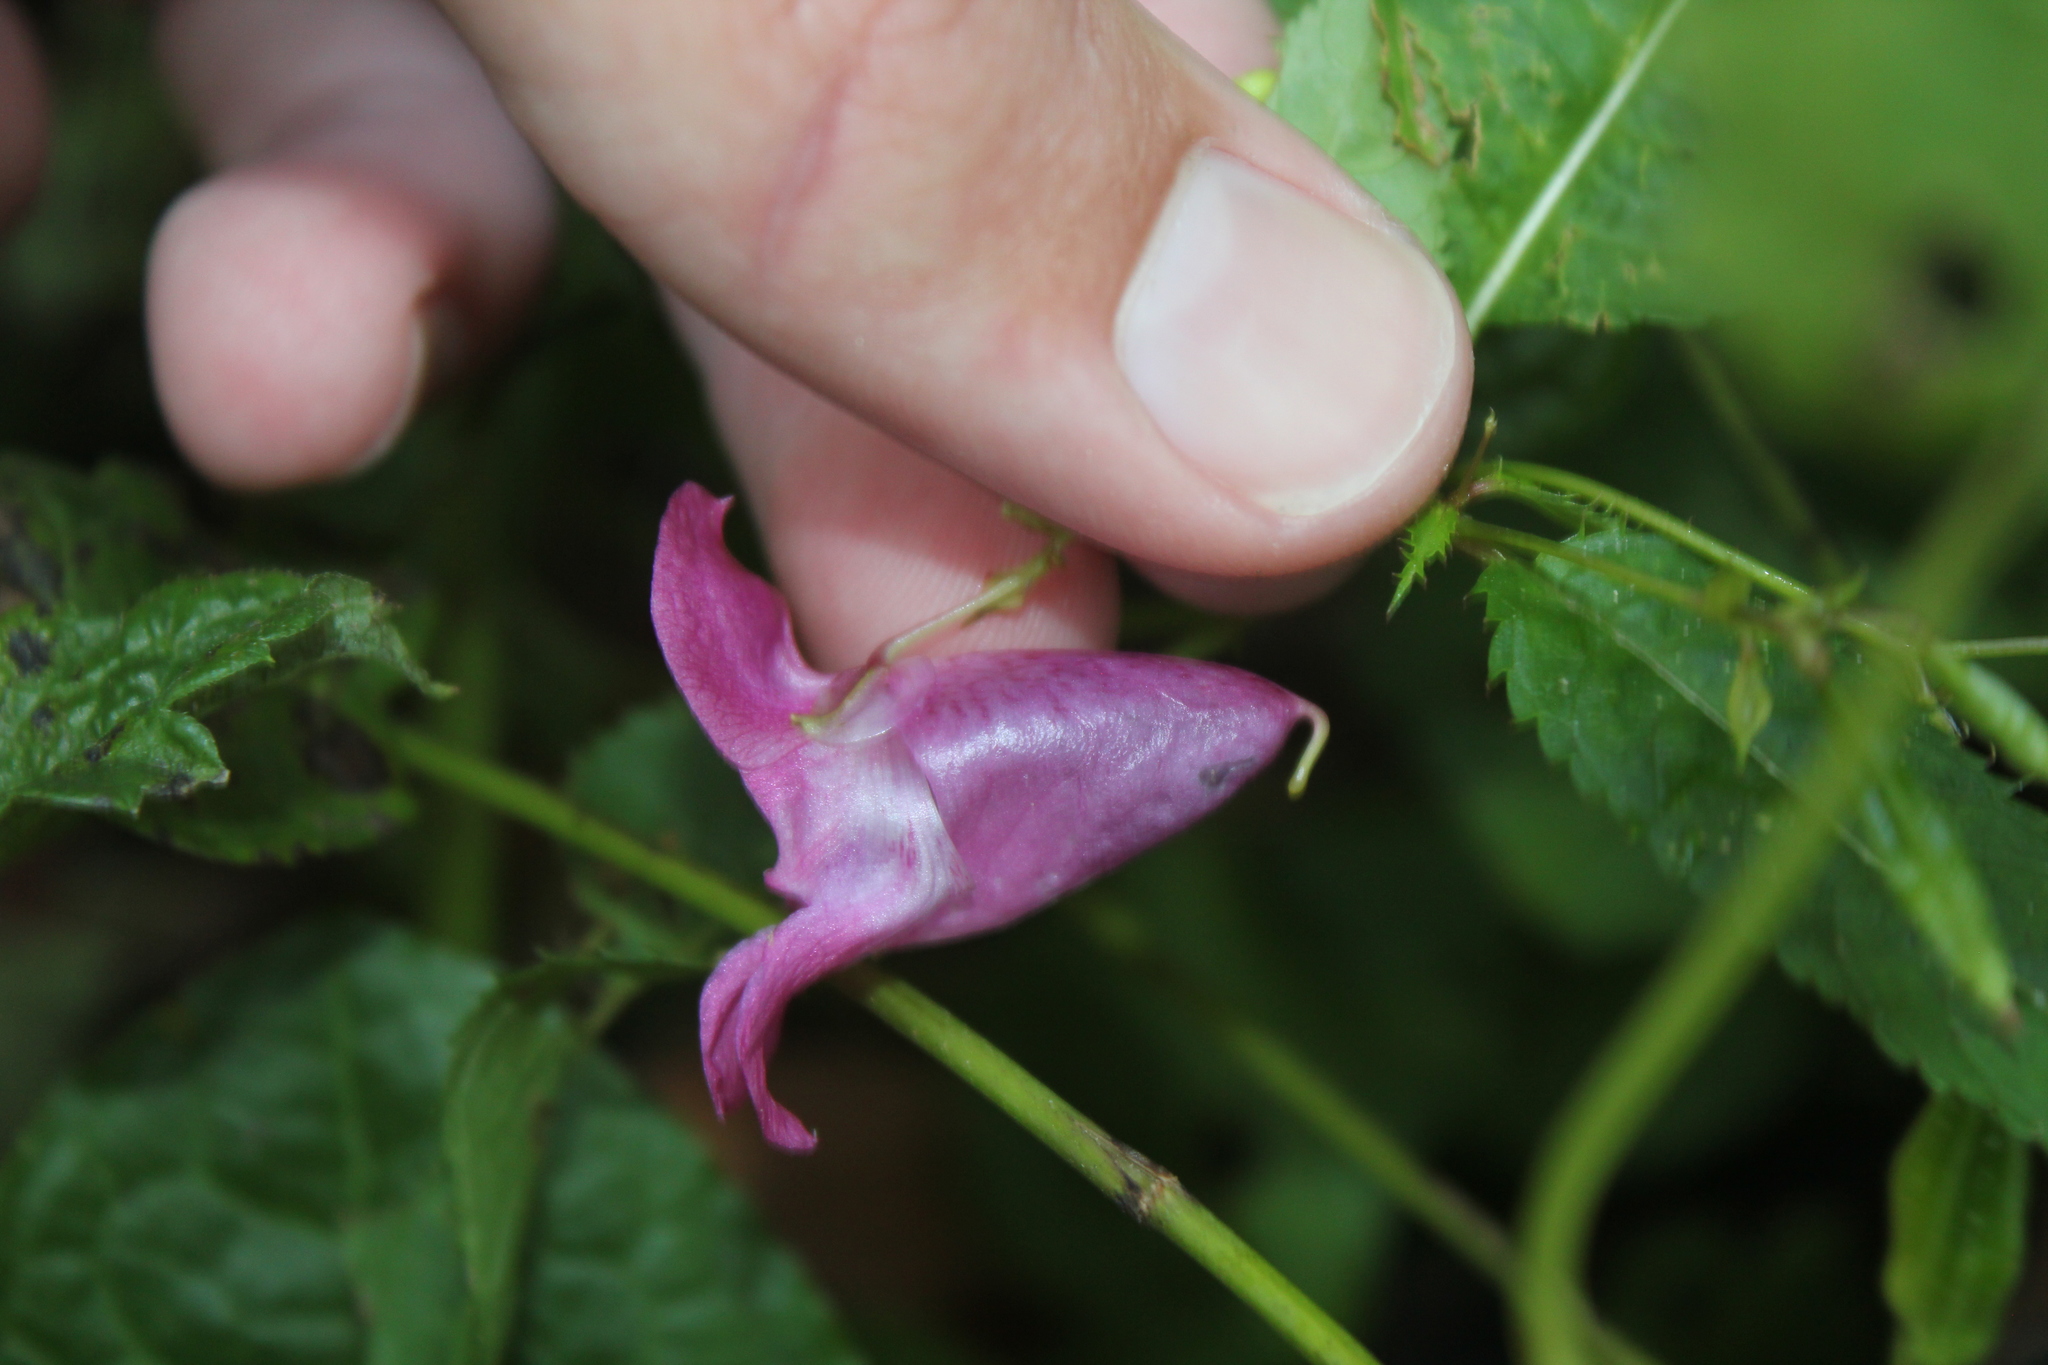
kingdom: Plantae
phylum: Tracheophyta
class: Magnoliopsida
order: Ericales
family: Balsaminaceae
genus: Impatiens
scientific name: Impatiens glandulifera
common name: Himalayan balsam
